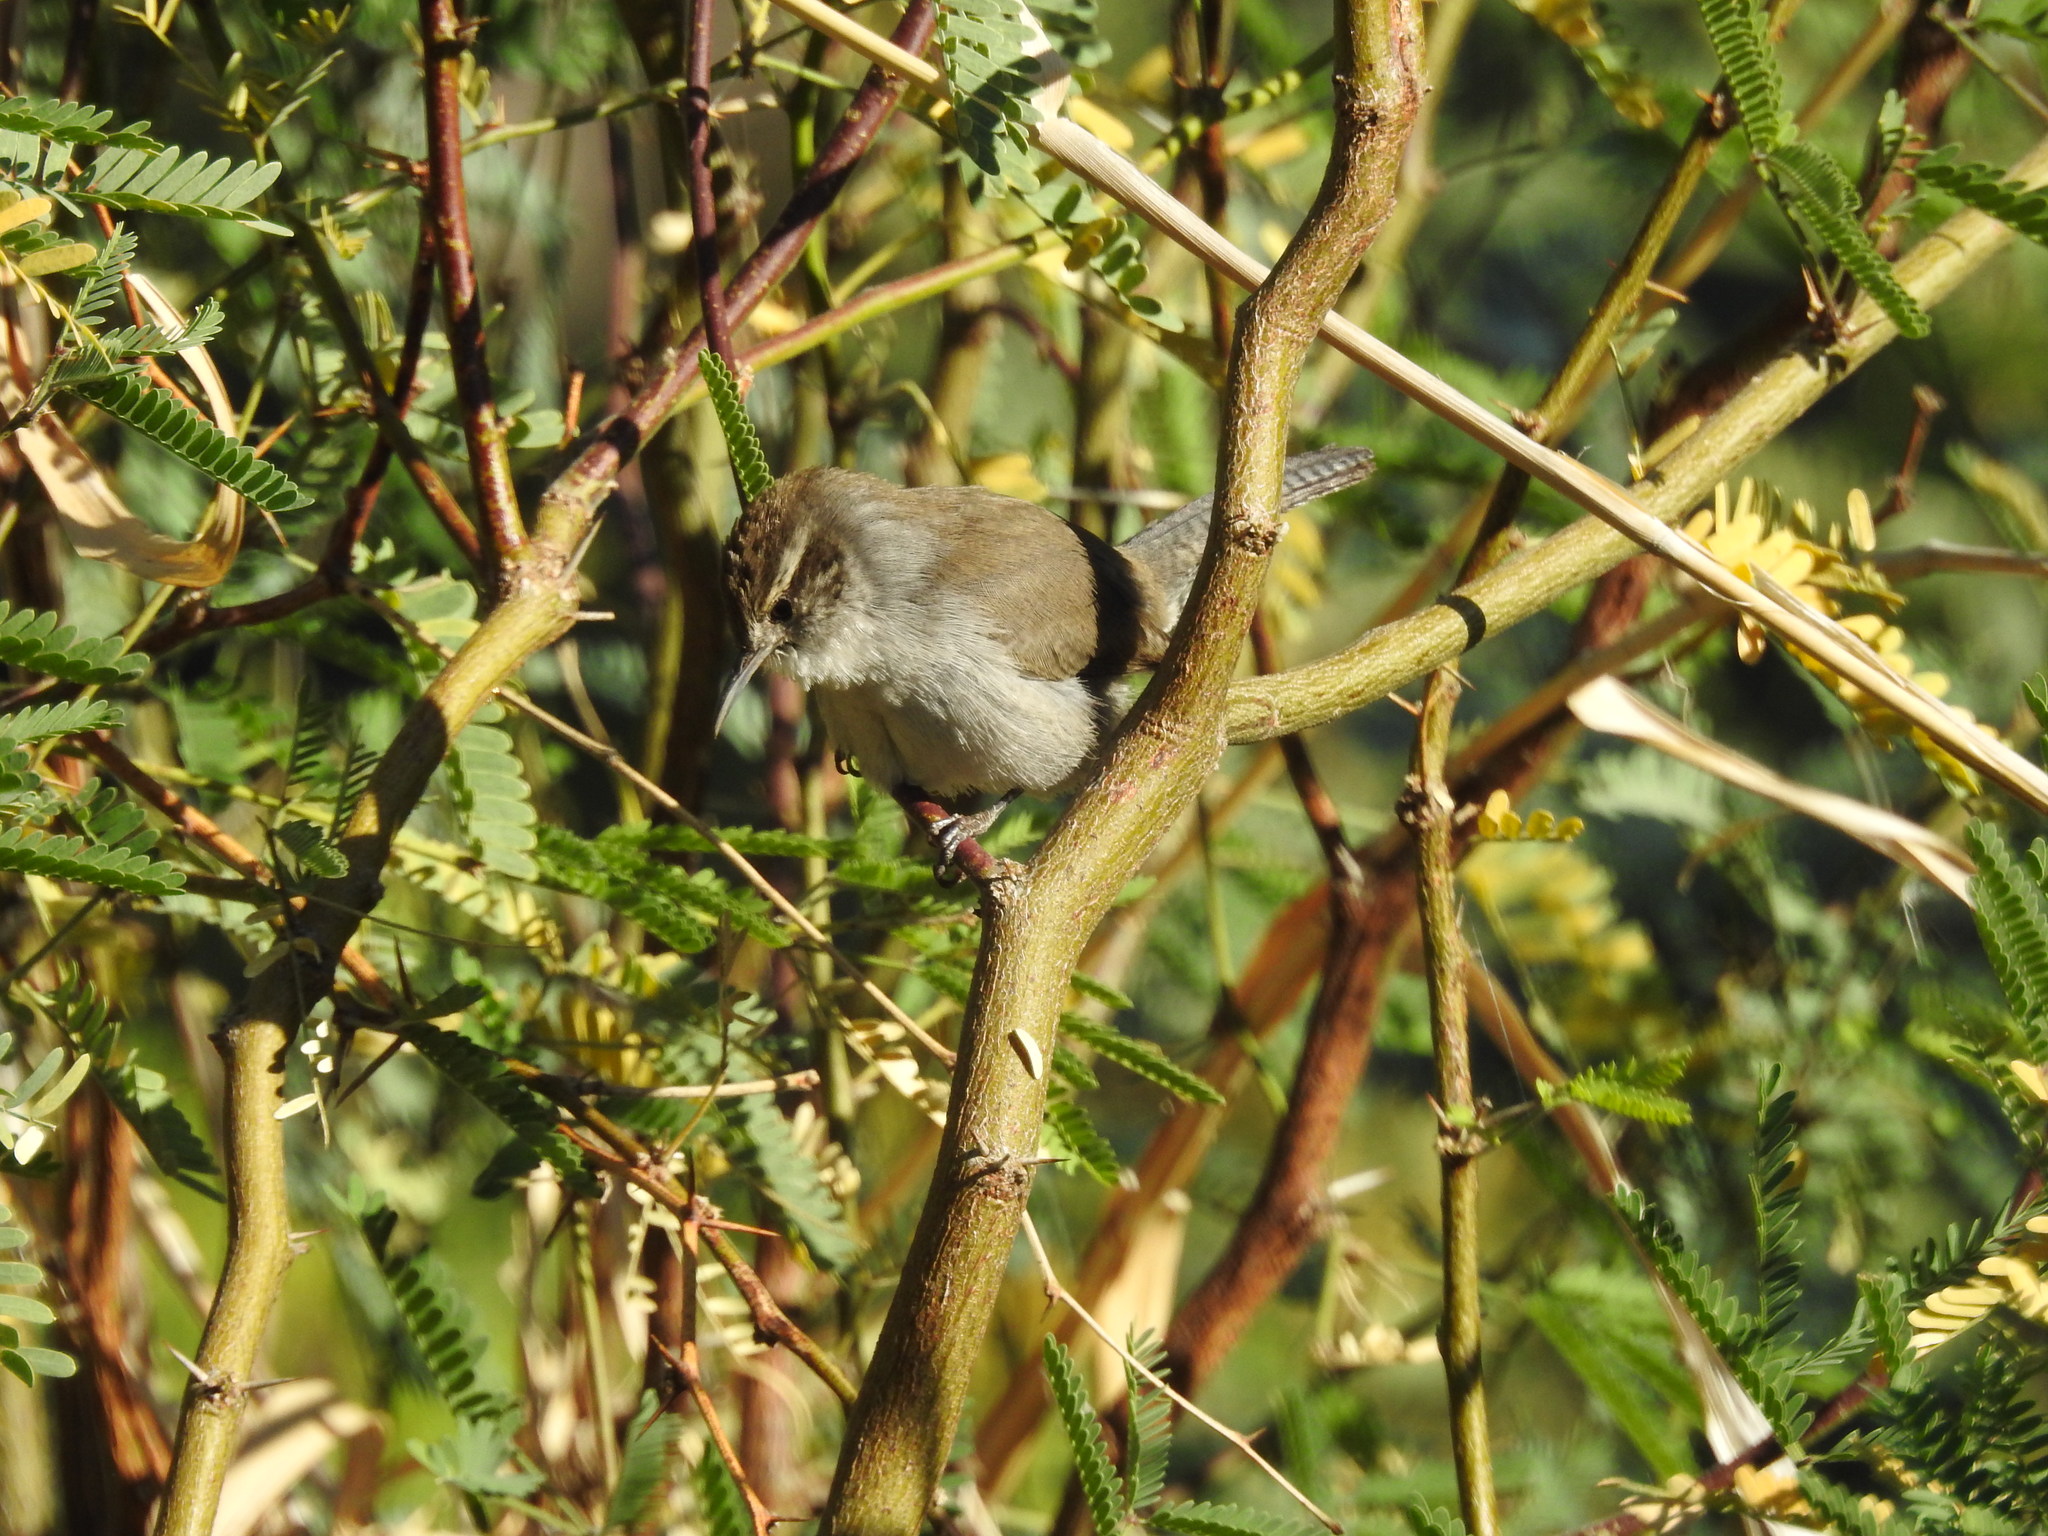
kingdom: Animalia
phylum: Chordata
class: Aves
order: Passeriformes
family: Troglodytidae
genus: Thryomanes
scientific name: Thryomanes bewickii
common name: Bewick's wren
